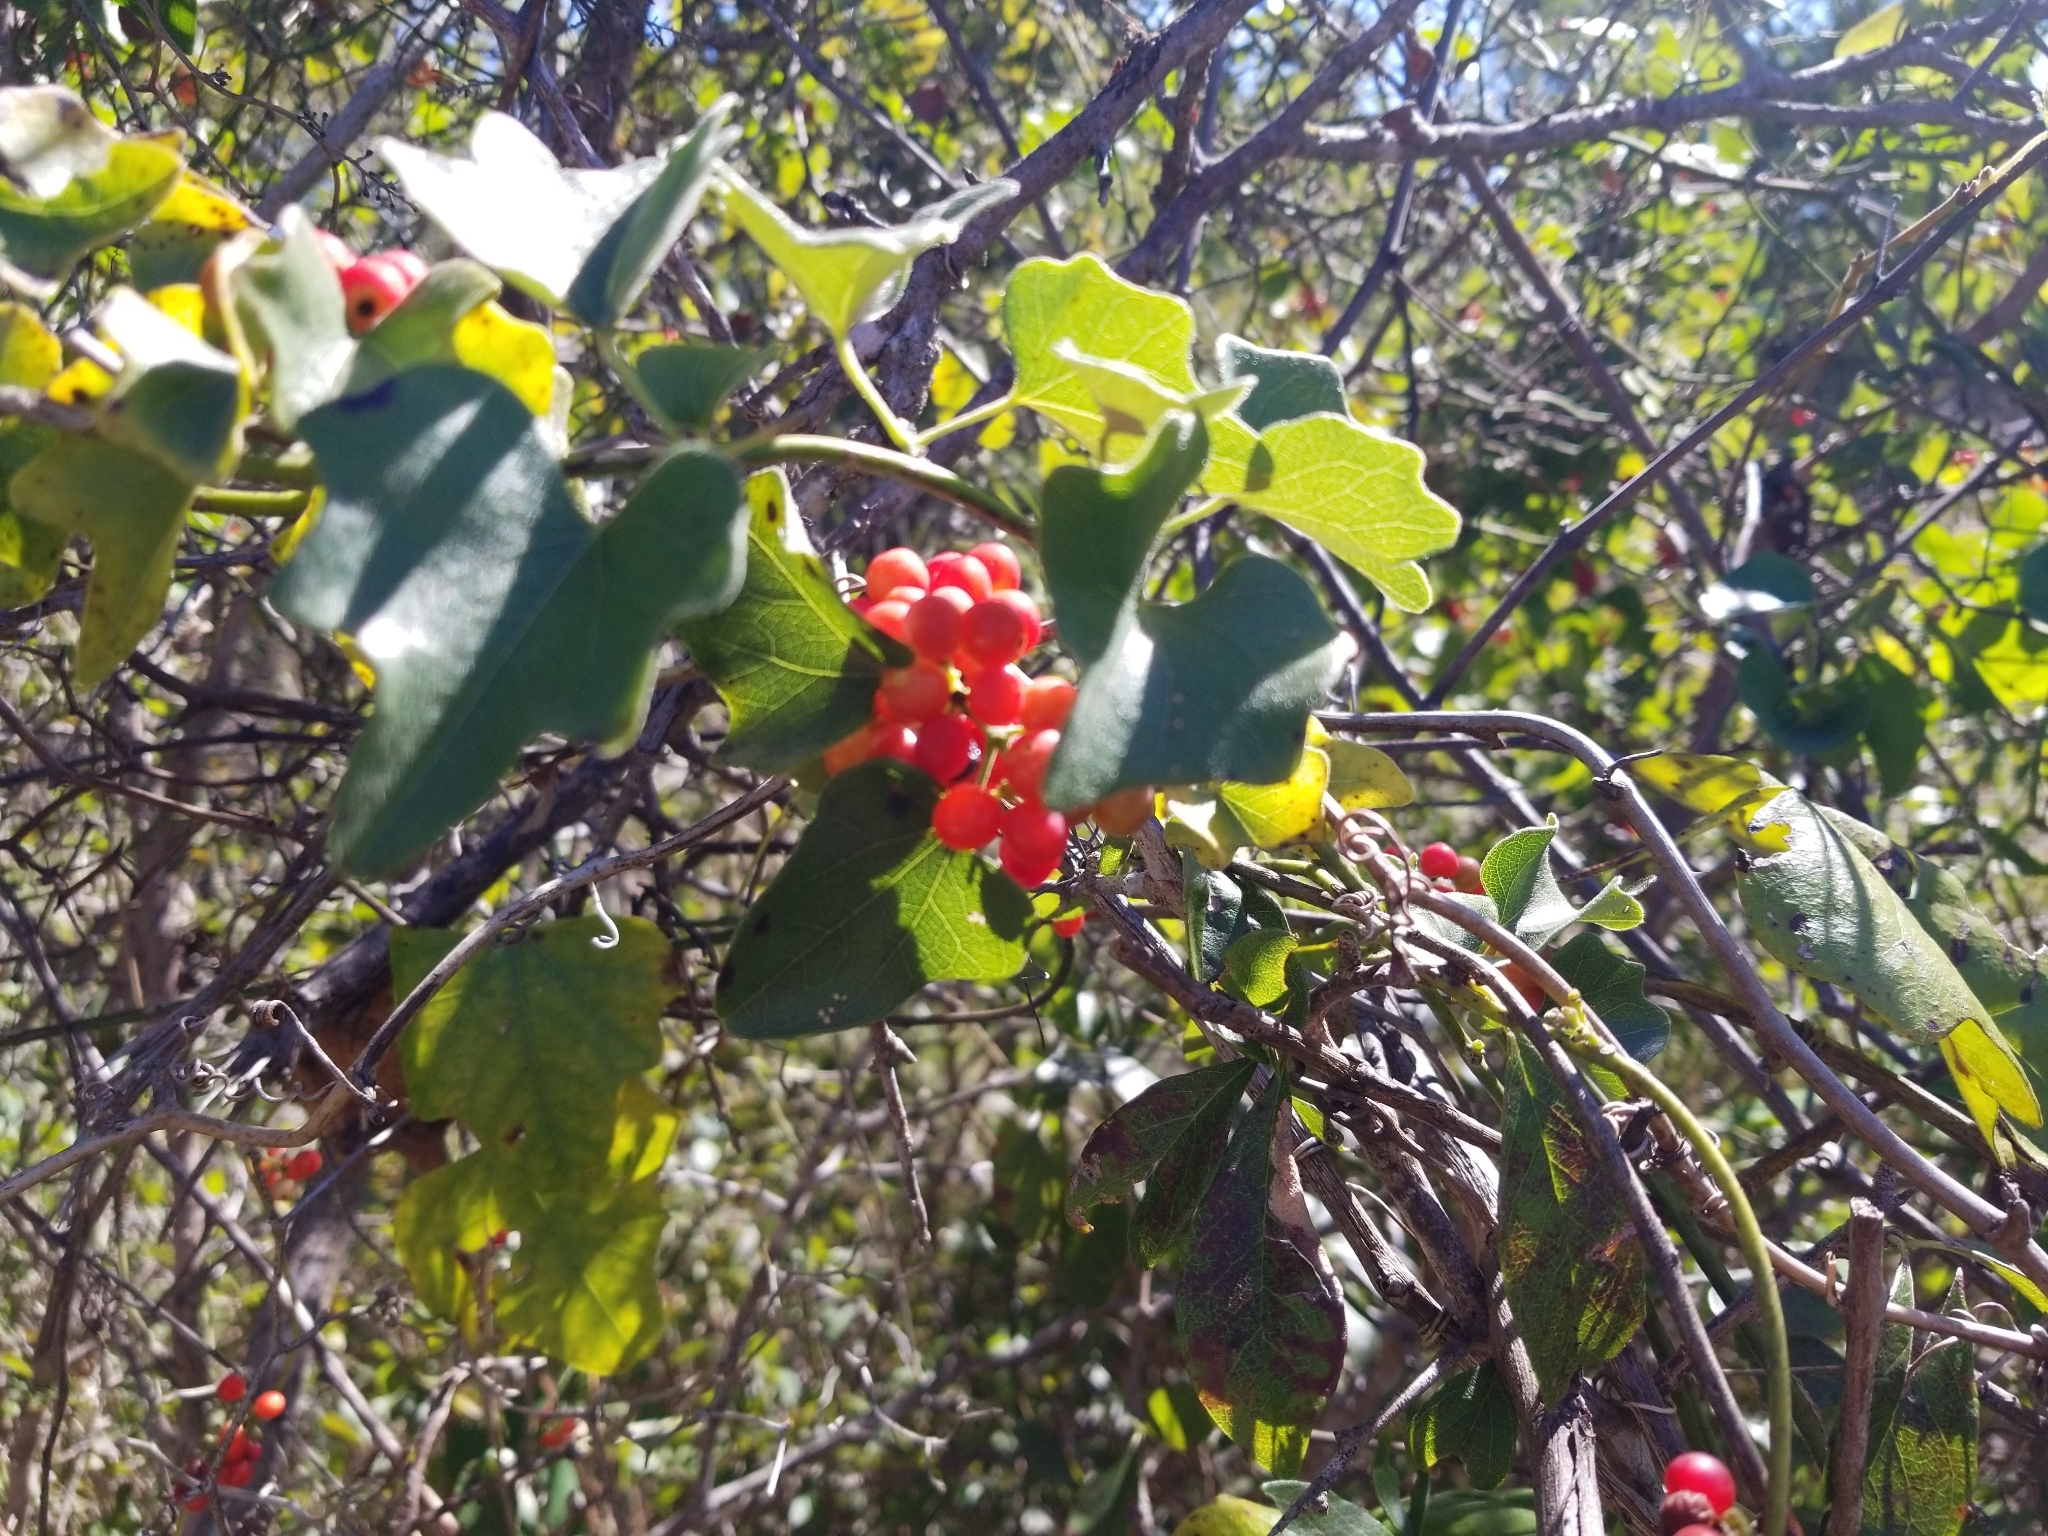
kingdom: Plantae
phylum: Tracheophyta
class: Magnoliopsida
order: Ranunculales
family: Menispermaceae
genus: Cocculus
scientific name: Cocculus carolinus
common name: Carolina moonseed
